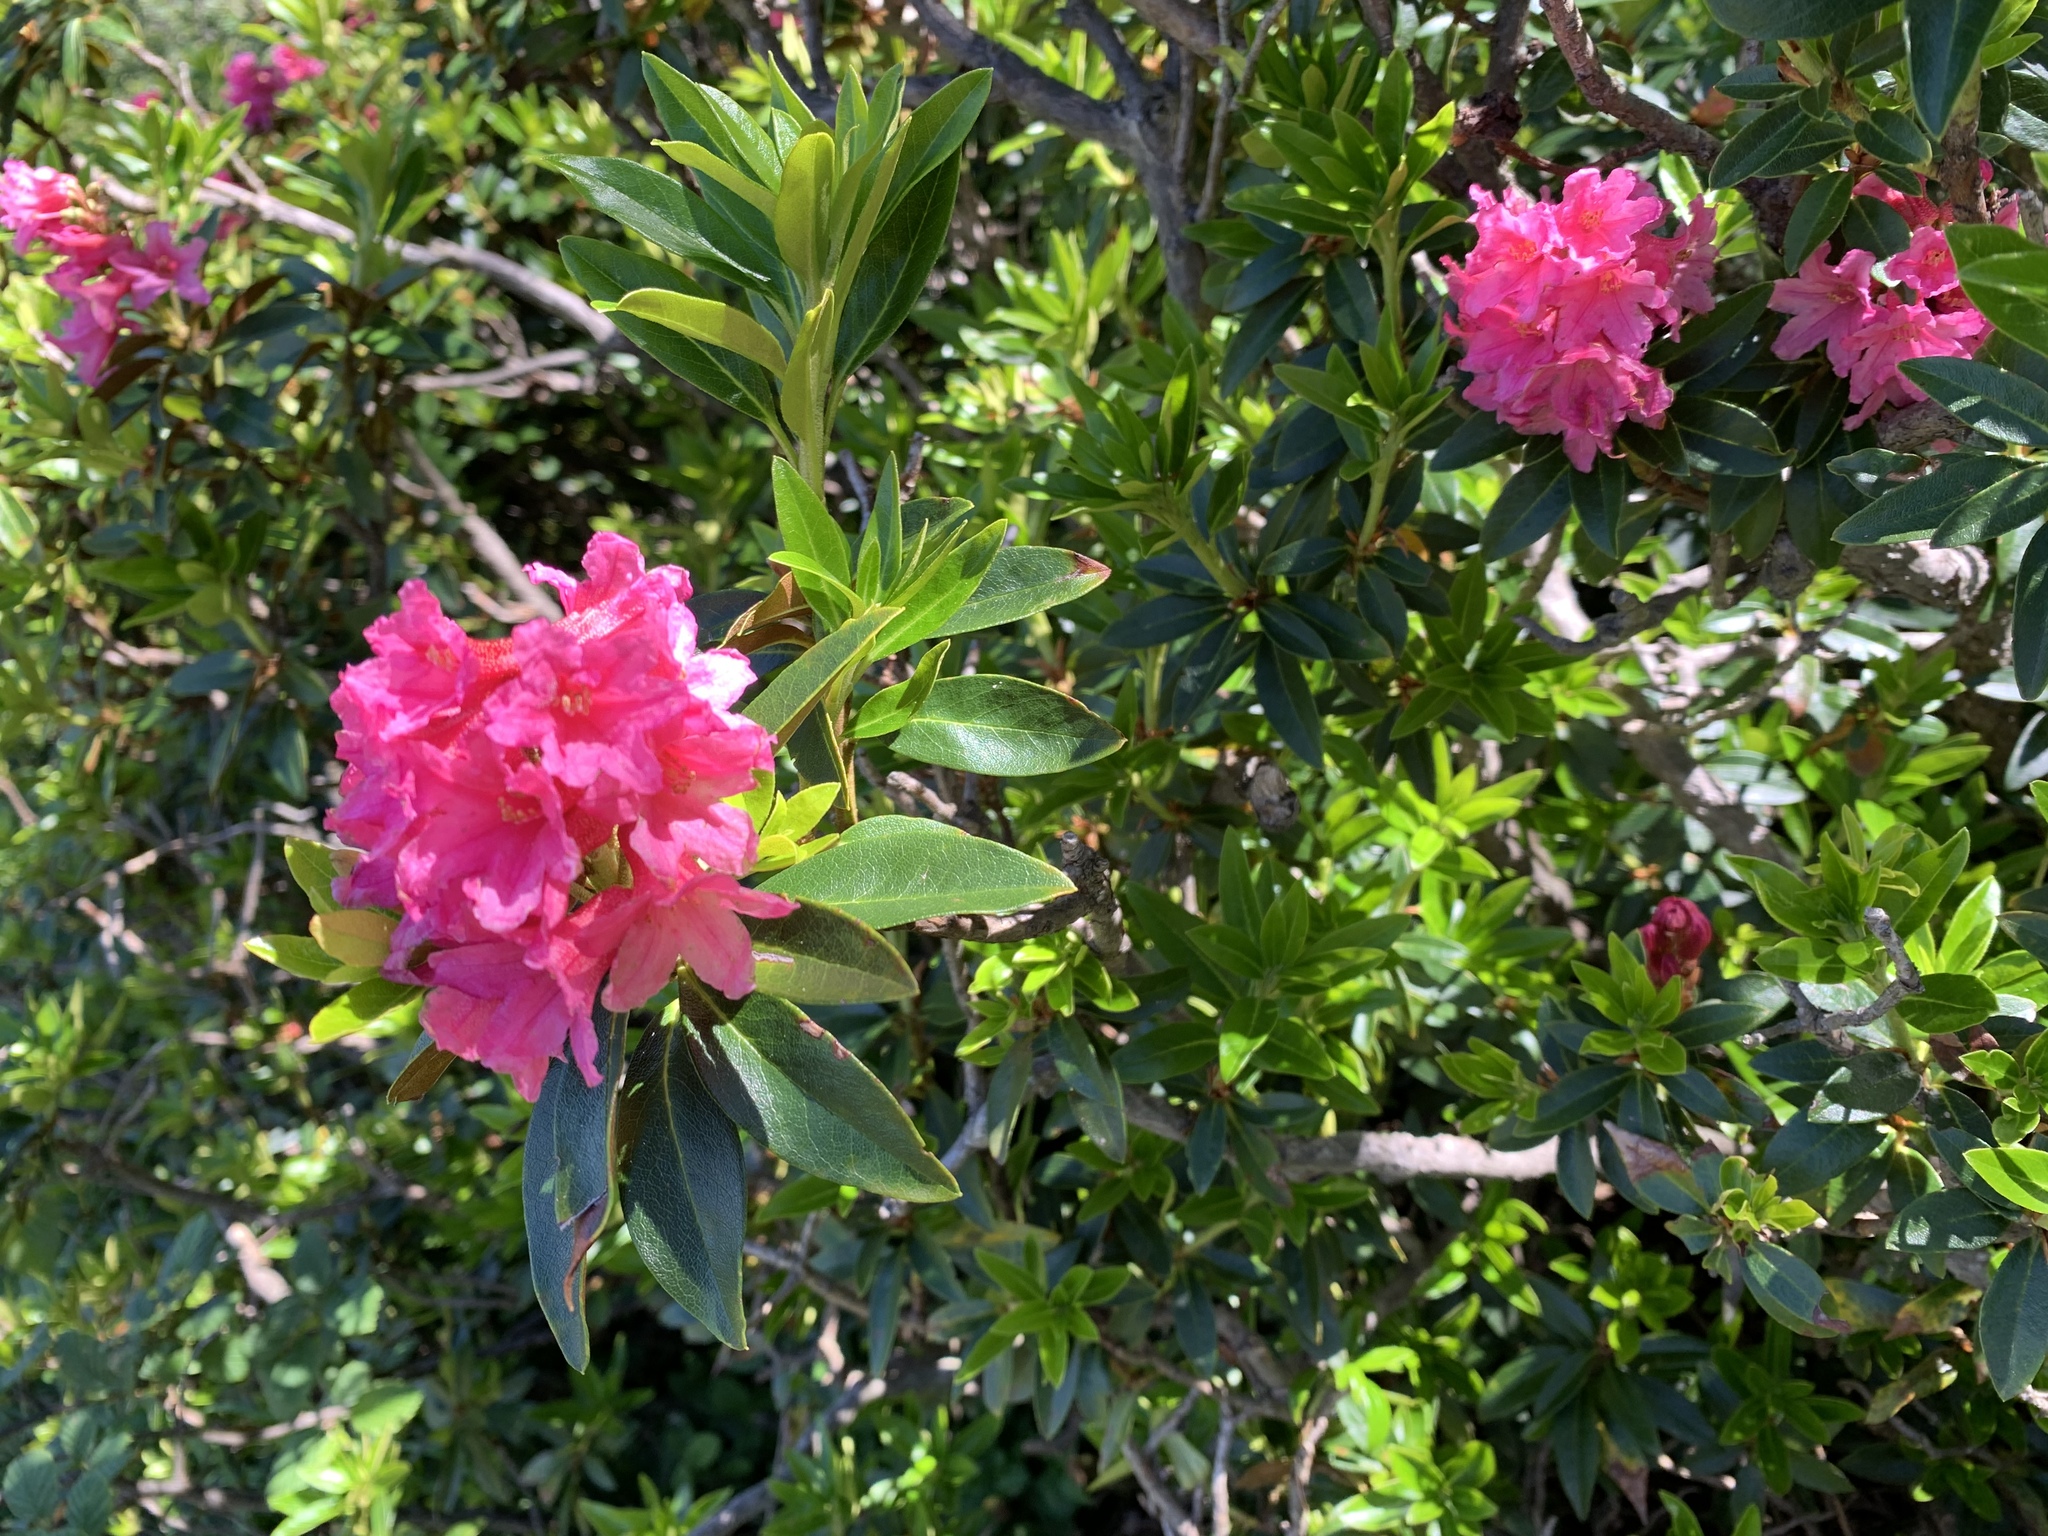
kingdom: Plantae
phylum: Tracheophyta
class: Magnoliopsida
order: Ericales
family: Ericaceae
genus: Rhododendron
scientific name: Rhododendron ferrugineum
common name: Alpenrose
